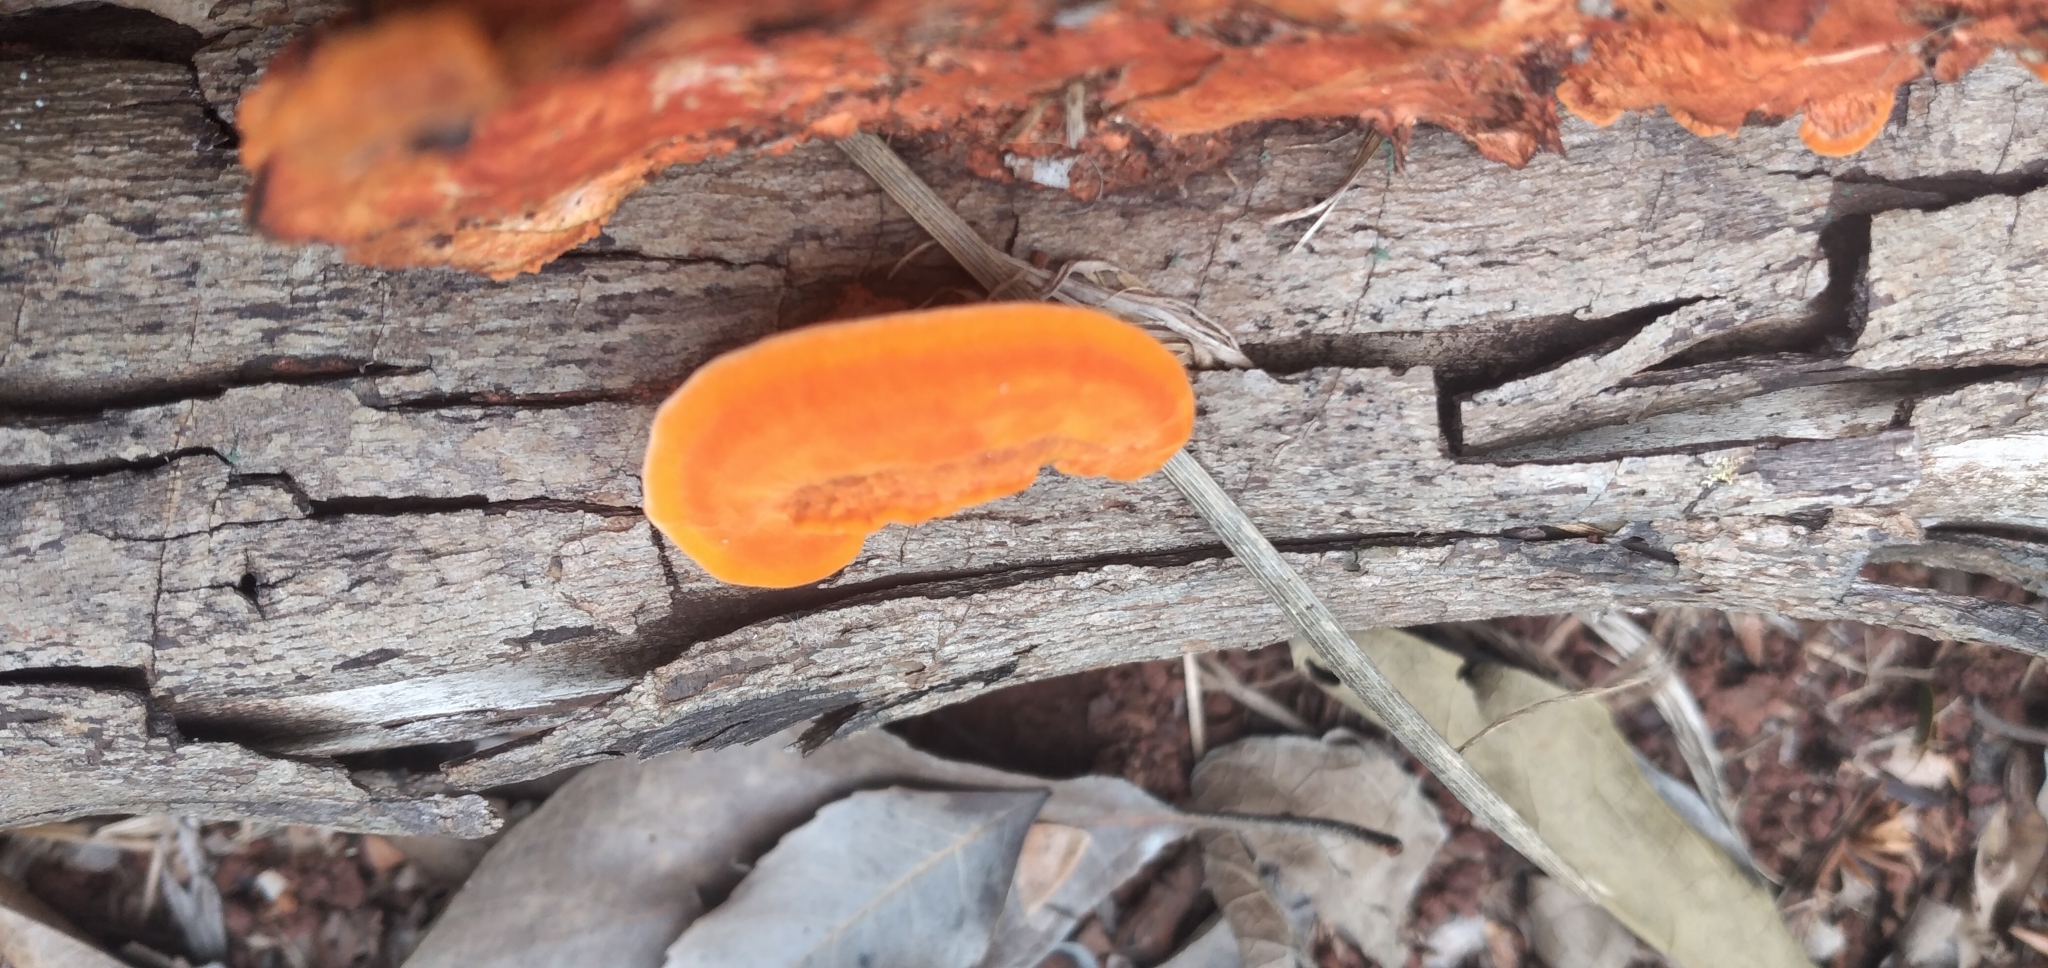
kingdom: Fungi
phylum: Basidiomycota
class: Agaricomycetes
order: Polyporales
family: Polyporaceae
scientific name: Polyporaceae
